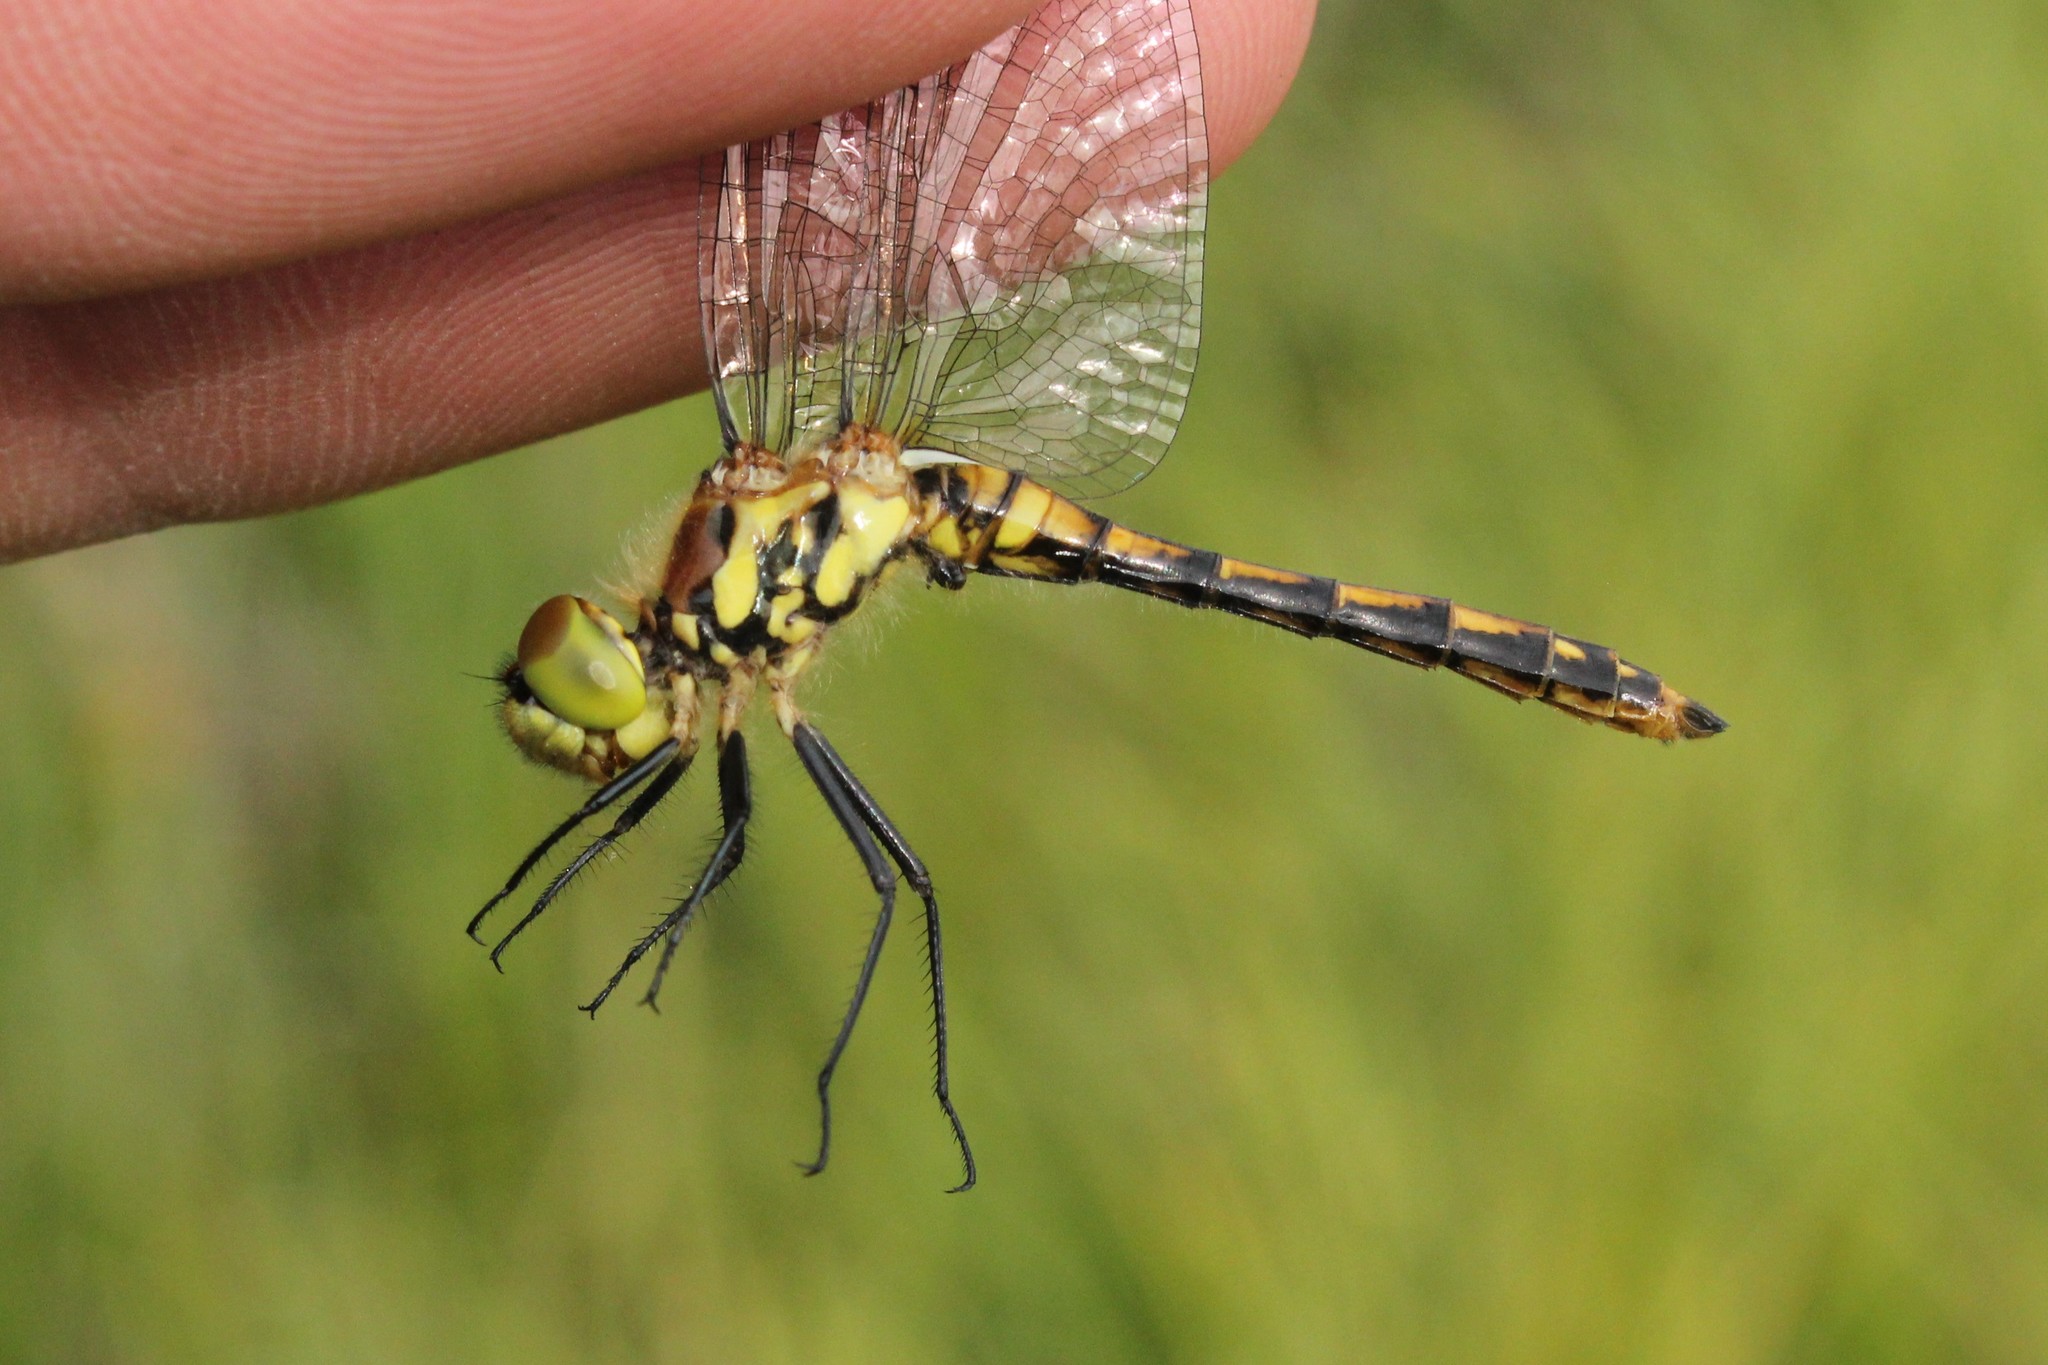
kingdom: Animalia
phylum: Arthropoda
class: Insecta
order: Odonata
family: Libellulidae
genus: Sympetrum
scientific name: Sympetrum danae
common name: Black darter
